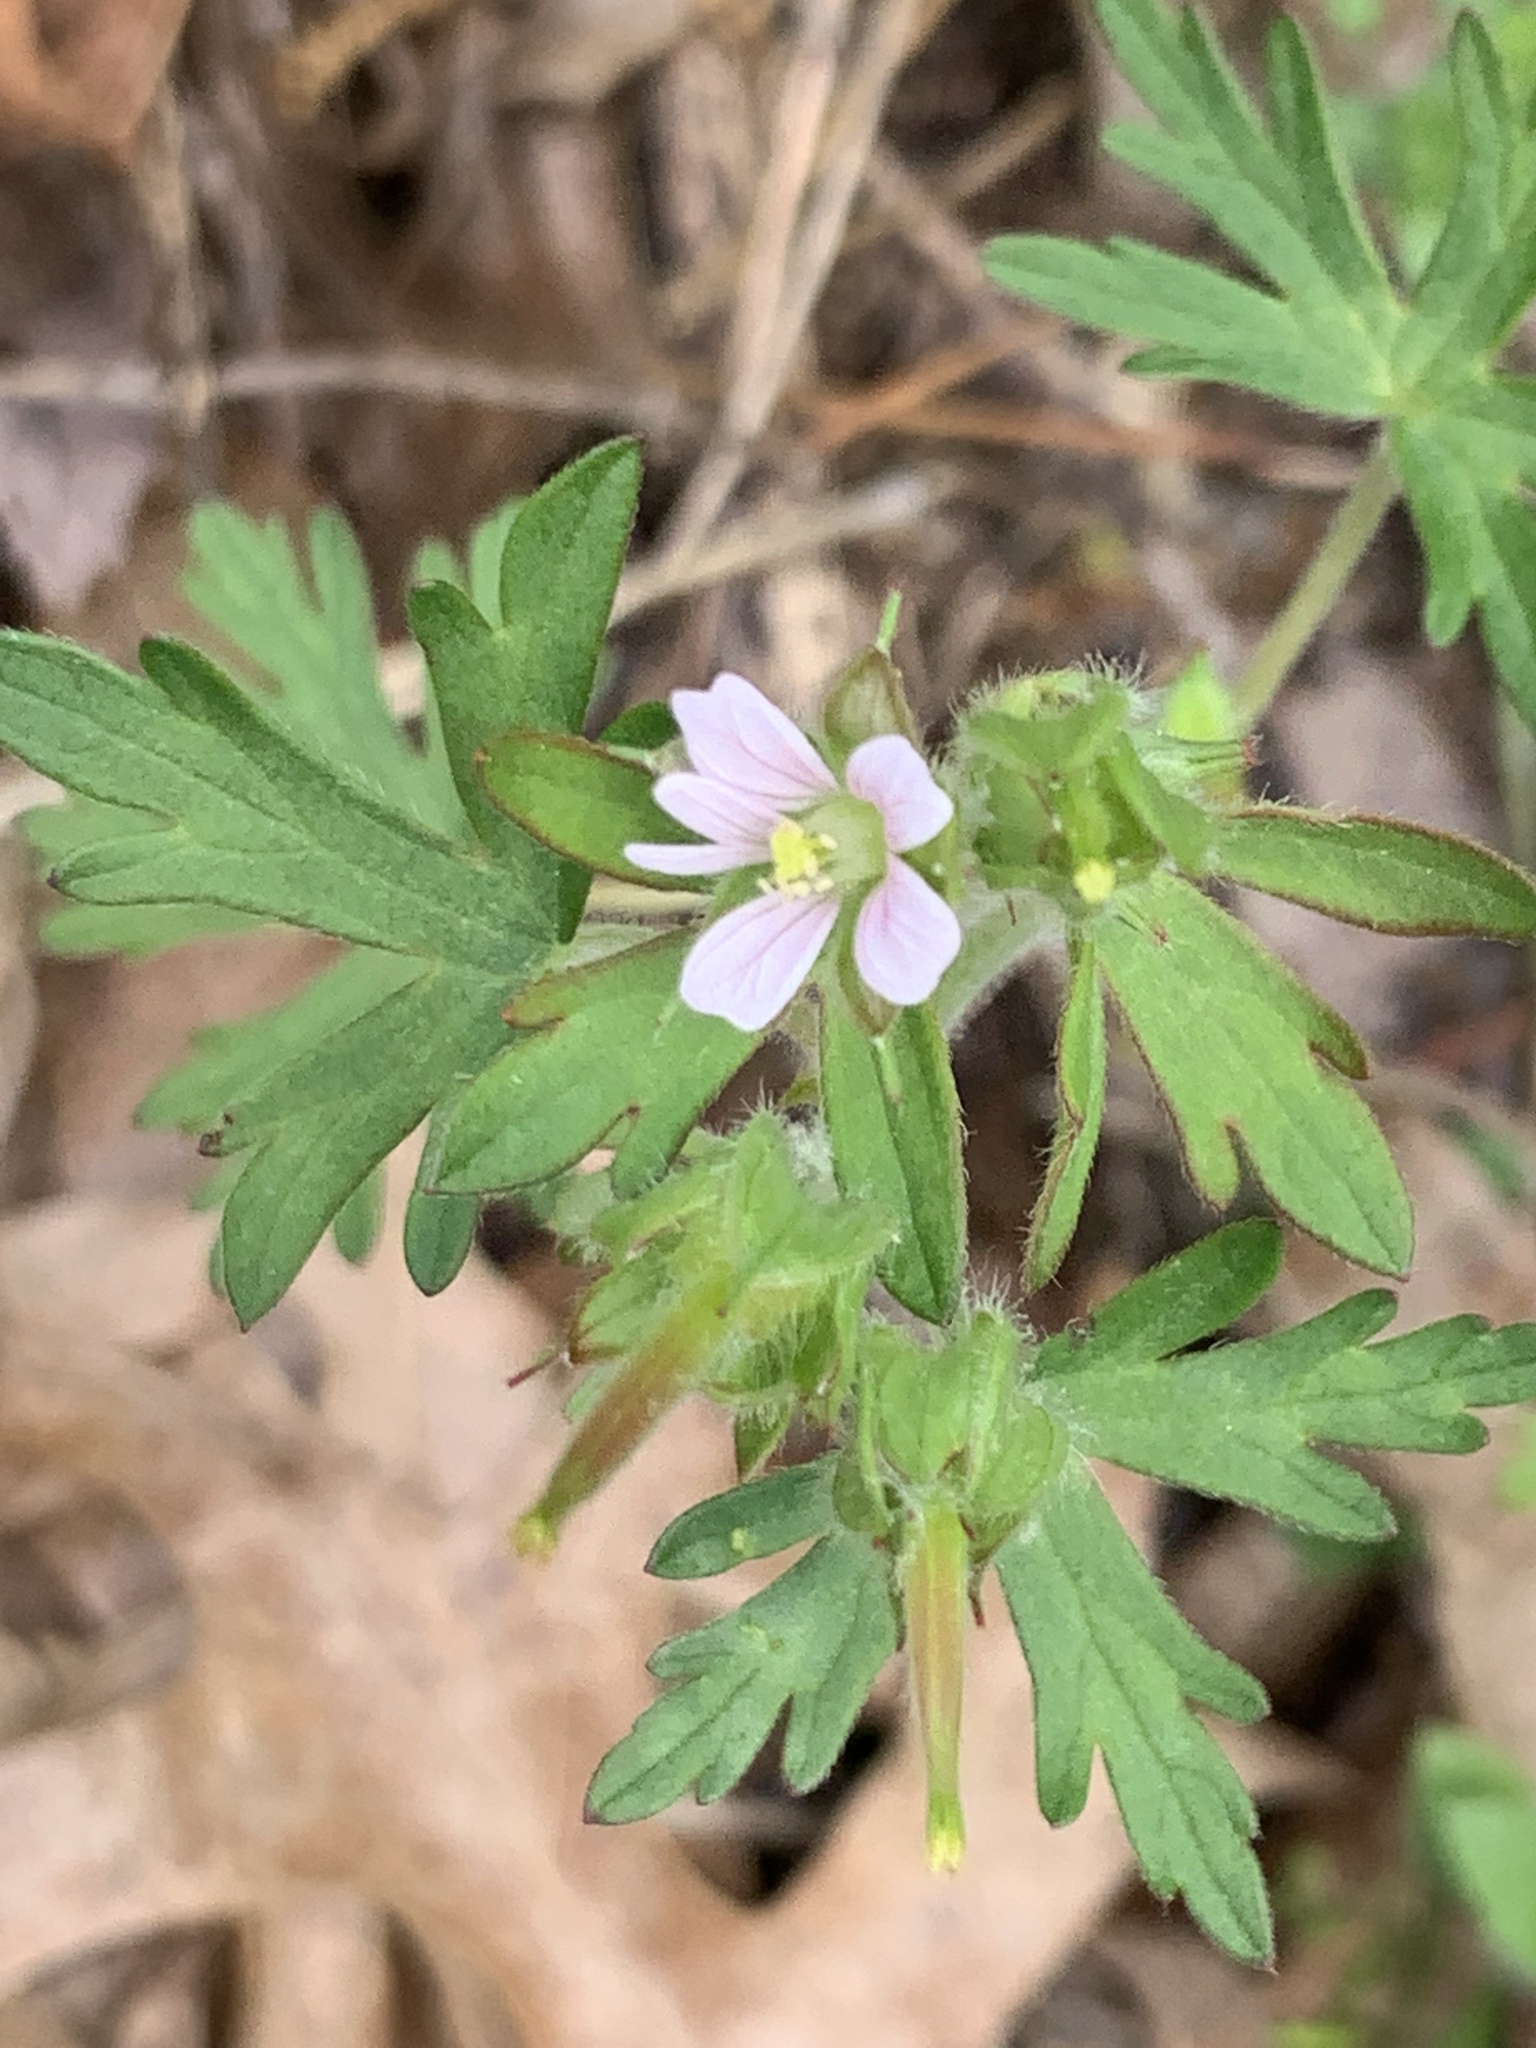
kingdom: Plantae
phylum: Tracheophyta
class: Magnoliopsida
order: Geraniales
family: Geraniaceae
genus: Geranium
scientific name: Geranium carolinianum
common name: Carolina crane's-bill
